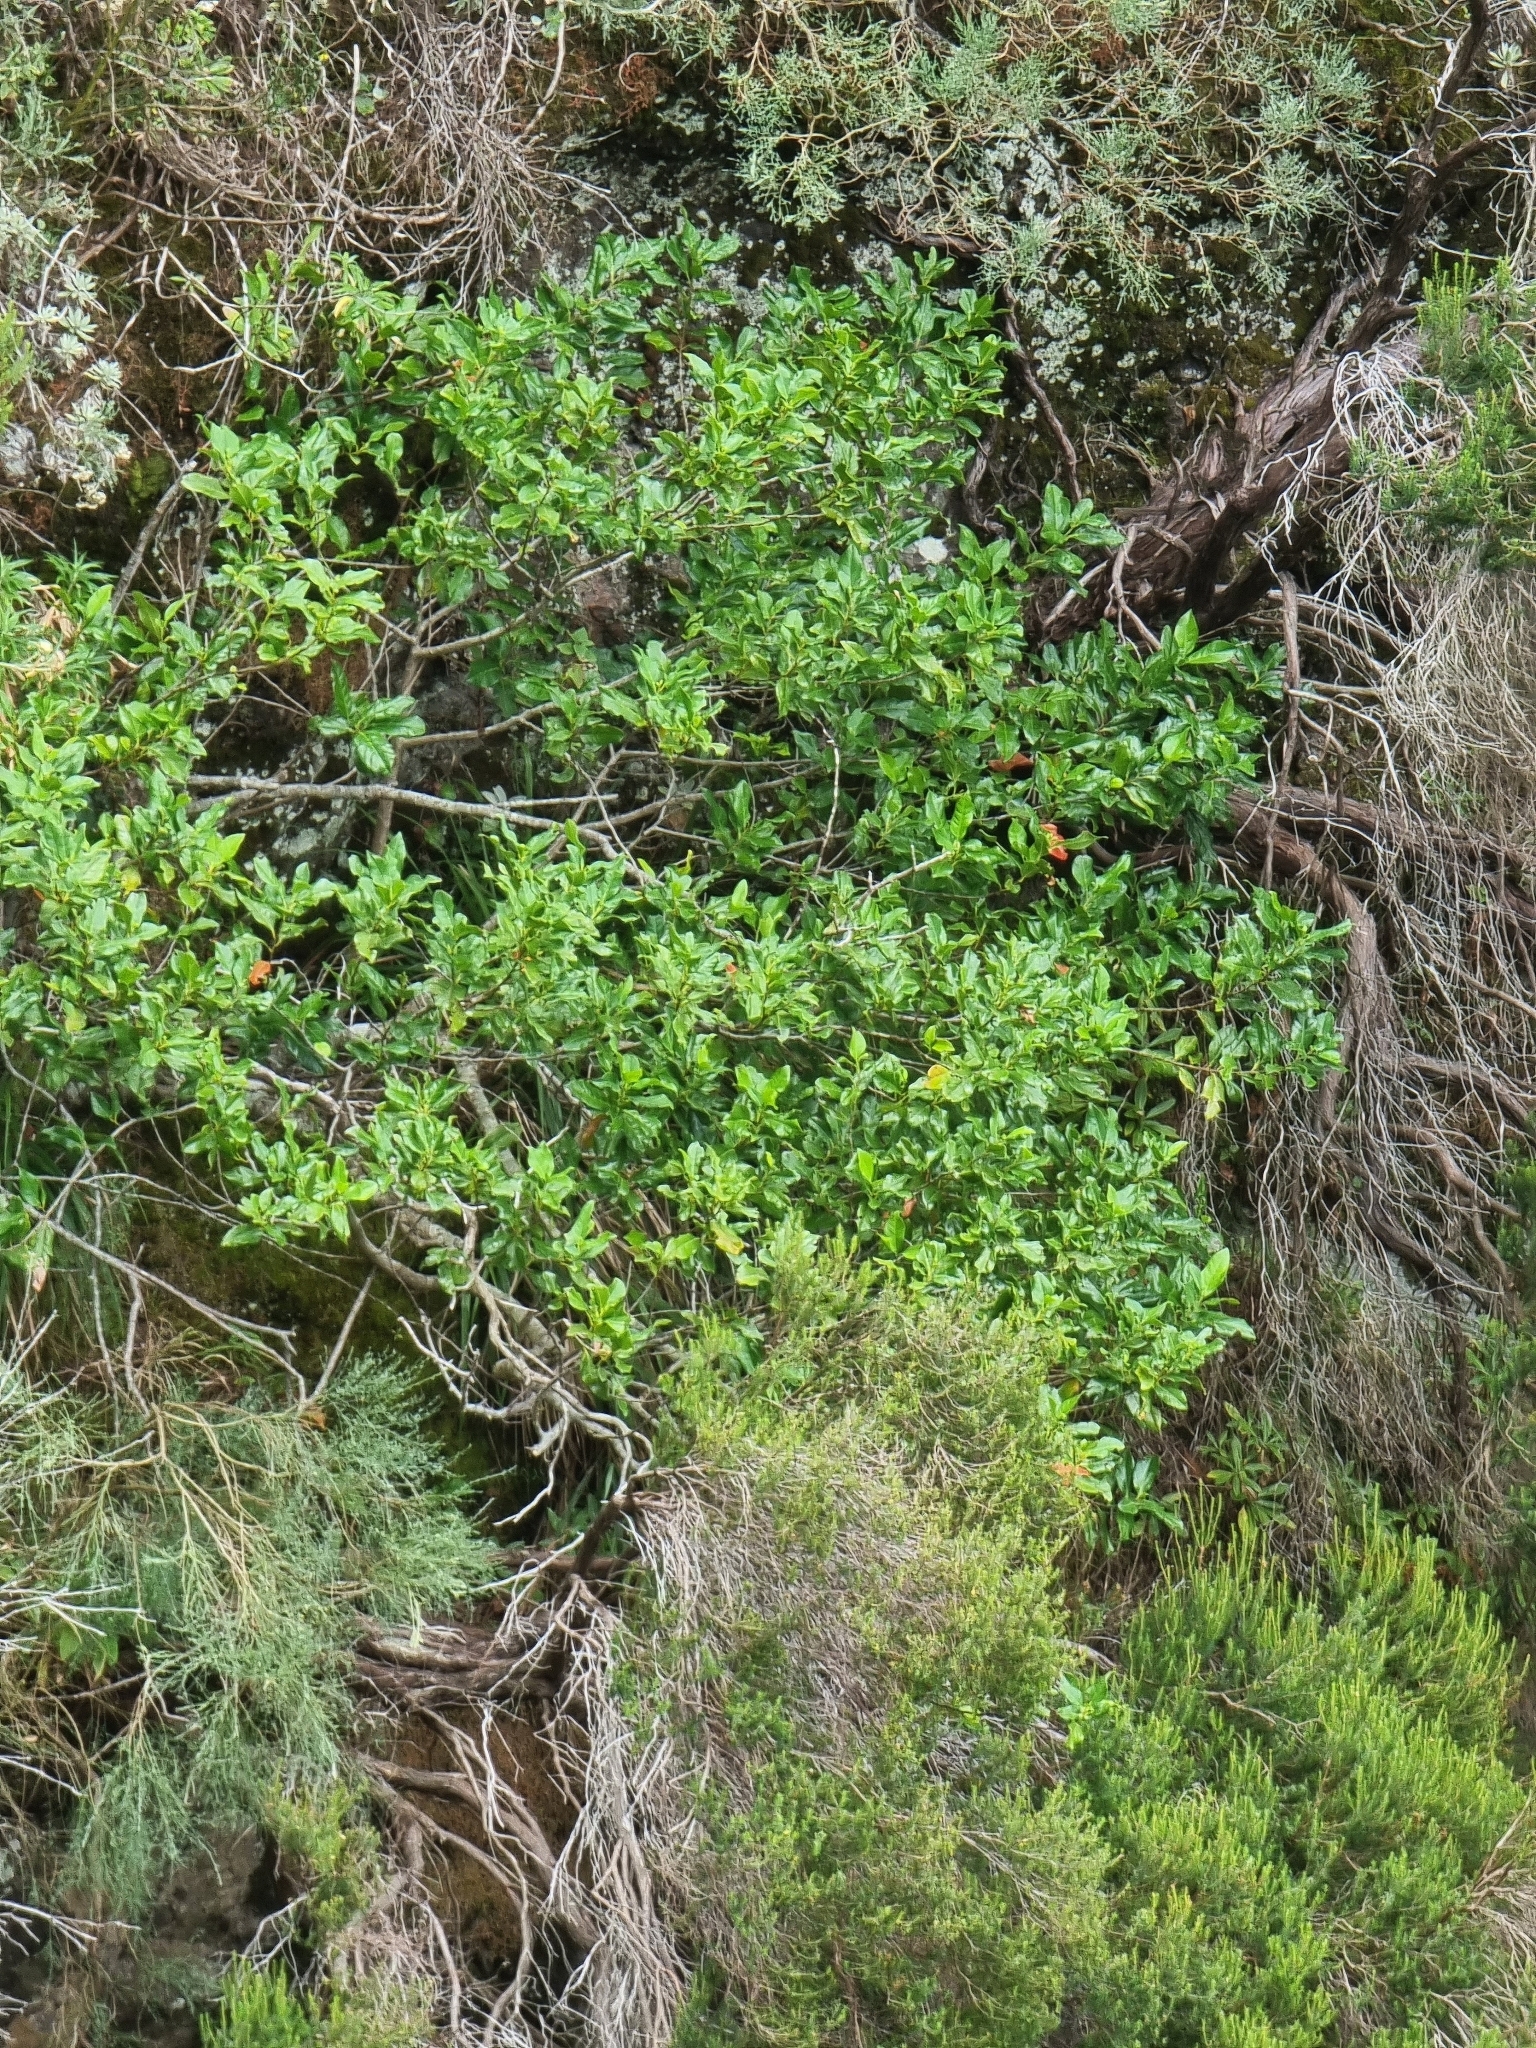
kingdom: Plantae
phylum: Tracheophyta
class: Magnoliopsida
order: Laurales
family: Lauraceae
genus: Mespilodaphne
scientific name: Mespilodaphne foetens
